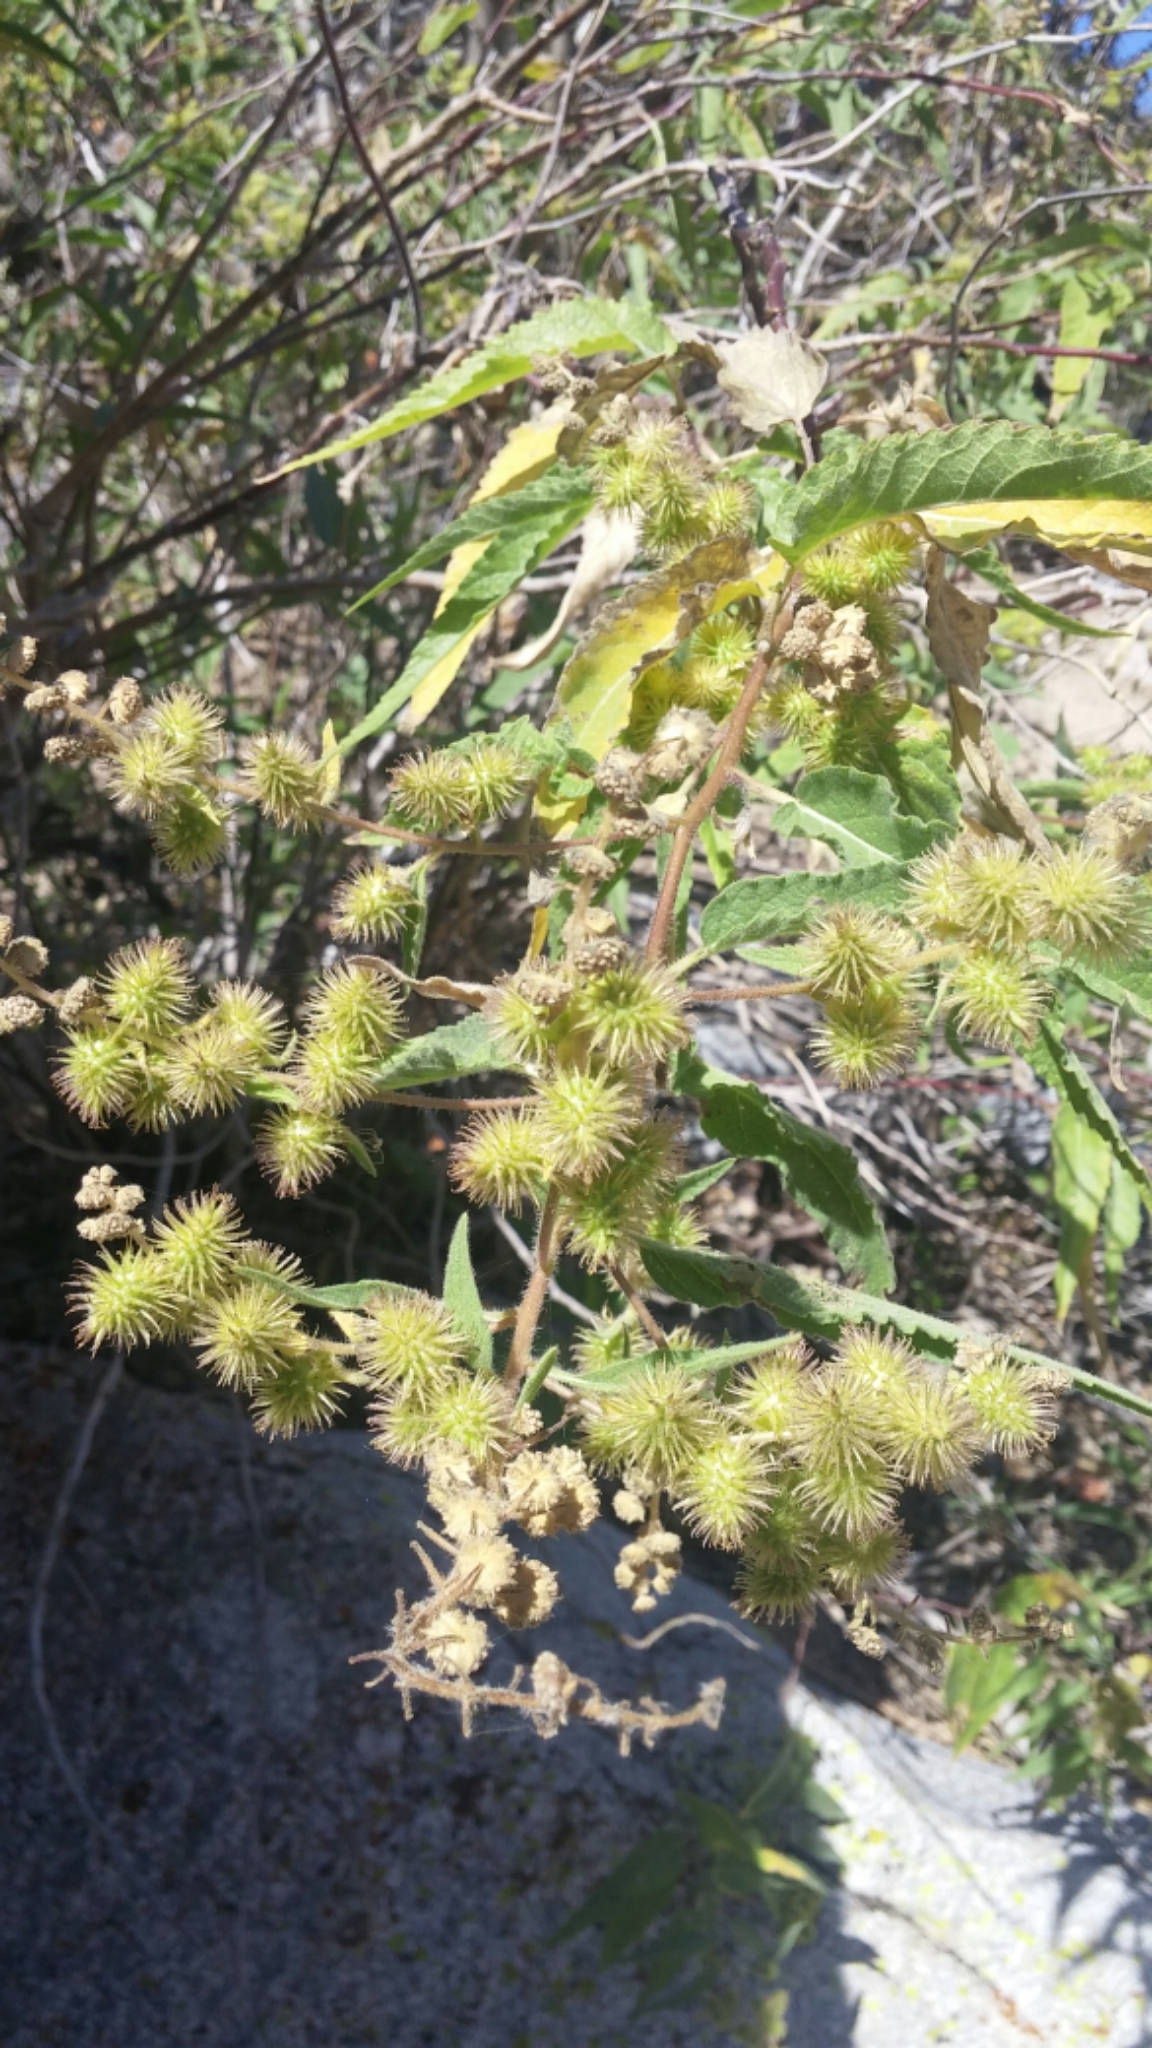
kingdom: Plantae
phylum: Tracheophyta
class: Magnoliopsida
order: Asterales
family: Asteraceae
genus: Ambrosia
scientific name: Ambrosia ambrosioides
